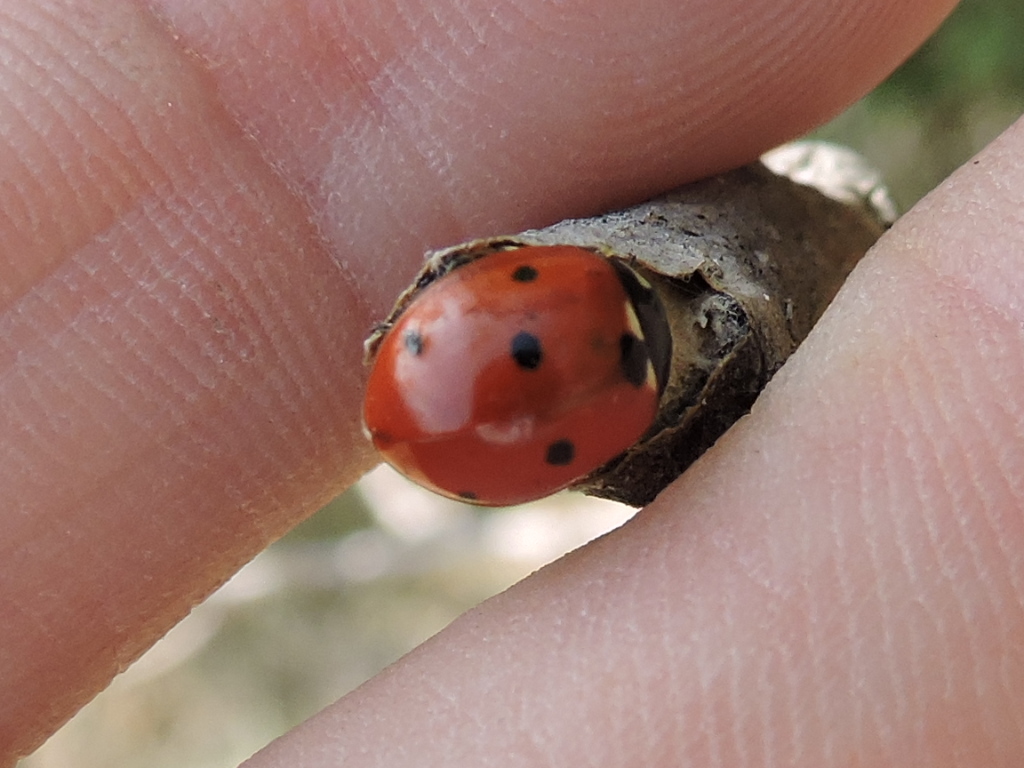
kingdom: Animalia
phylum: Arthropoda
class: Insecta
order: Coleoptera
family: Coccinellidae
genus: Coccinella
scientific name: Coccinella septempunctata
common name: Sevenspotted lady beetle
